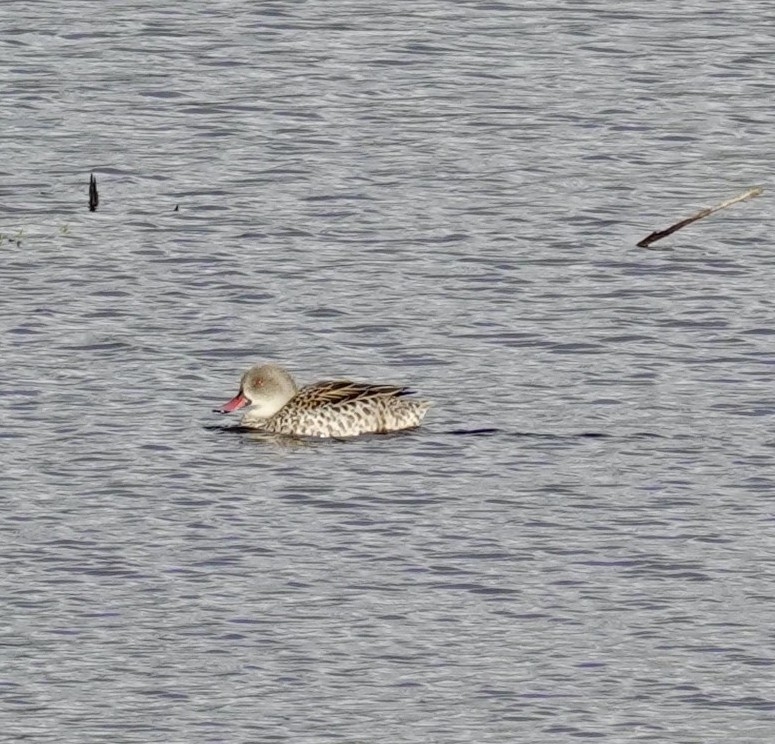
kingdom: Animalia
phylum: Chordata
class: Aves
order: Anseriformes
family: Anatidae
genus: Anas
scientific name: Anas capensis
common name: Cape teal
